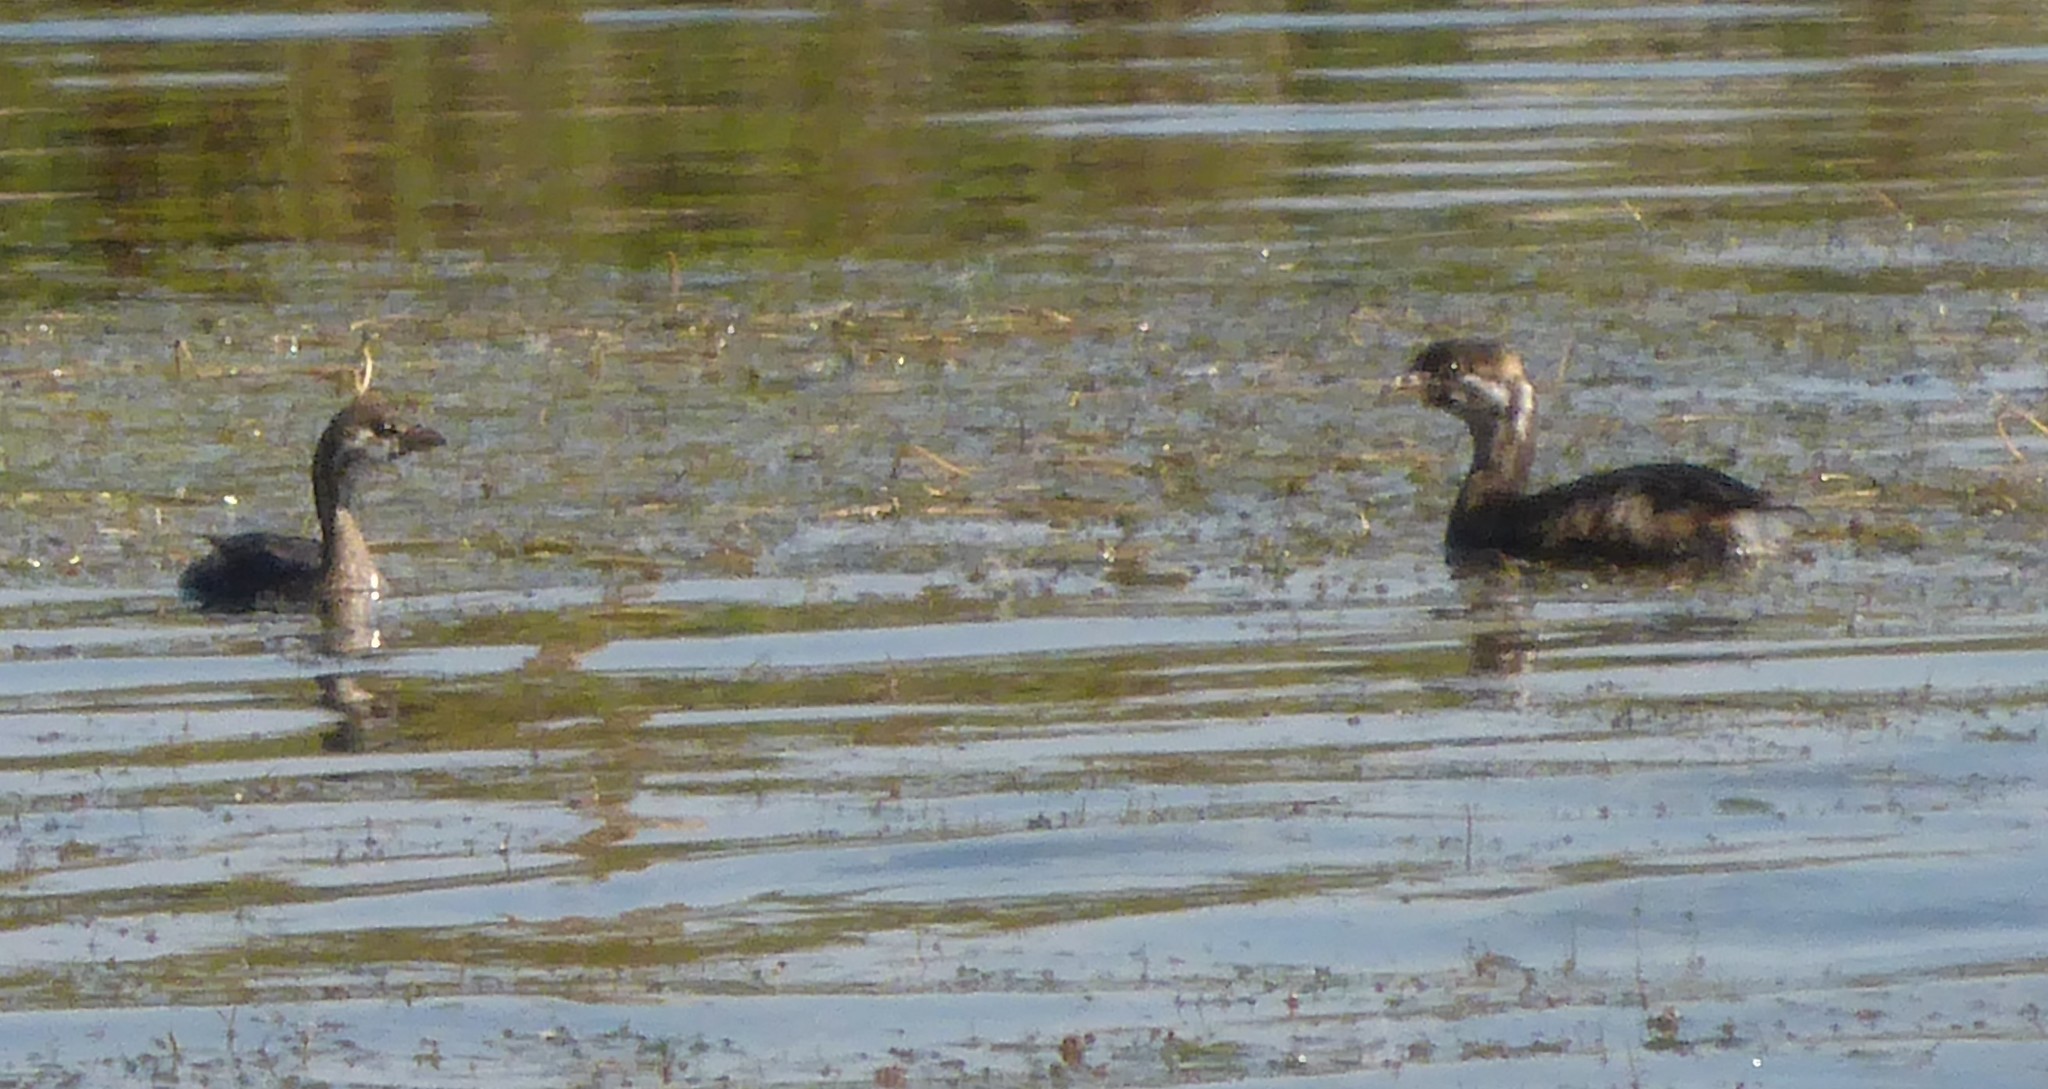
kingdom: Animalia
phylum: Chordata
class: Aves
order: Podicipediformes
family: Podicipedidae
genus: Podilymbus
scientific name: Podilymbus podiceps
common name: Pied-billed grebe
